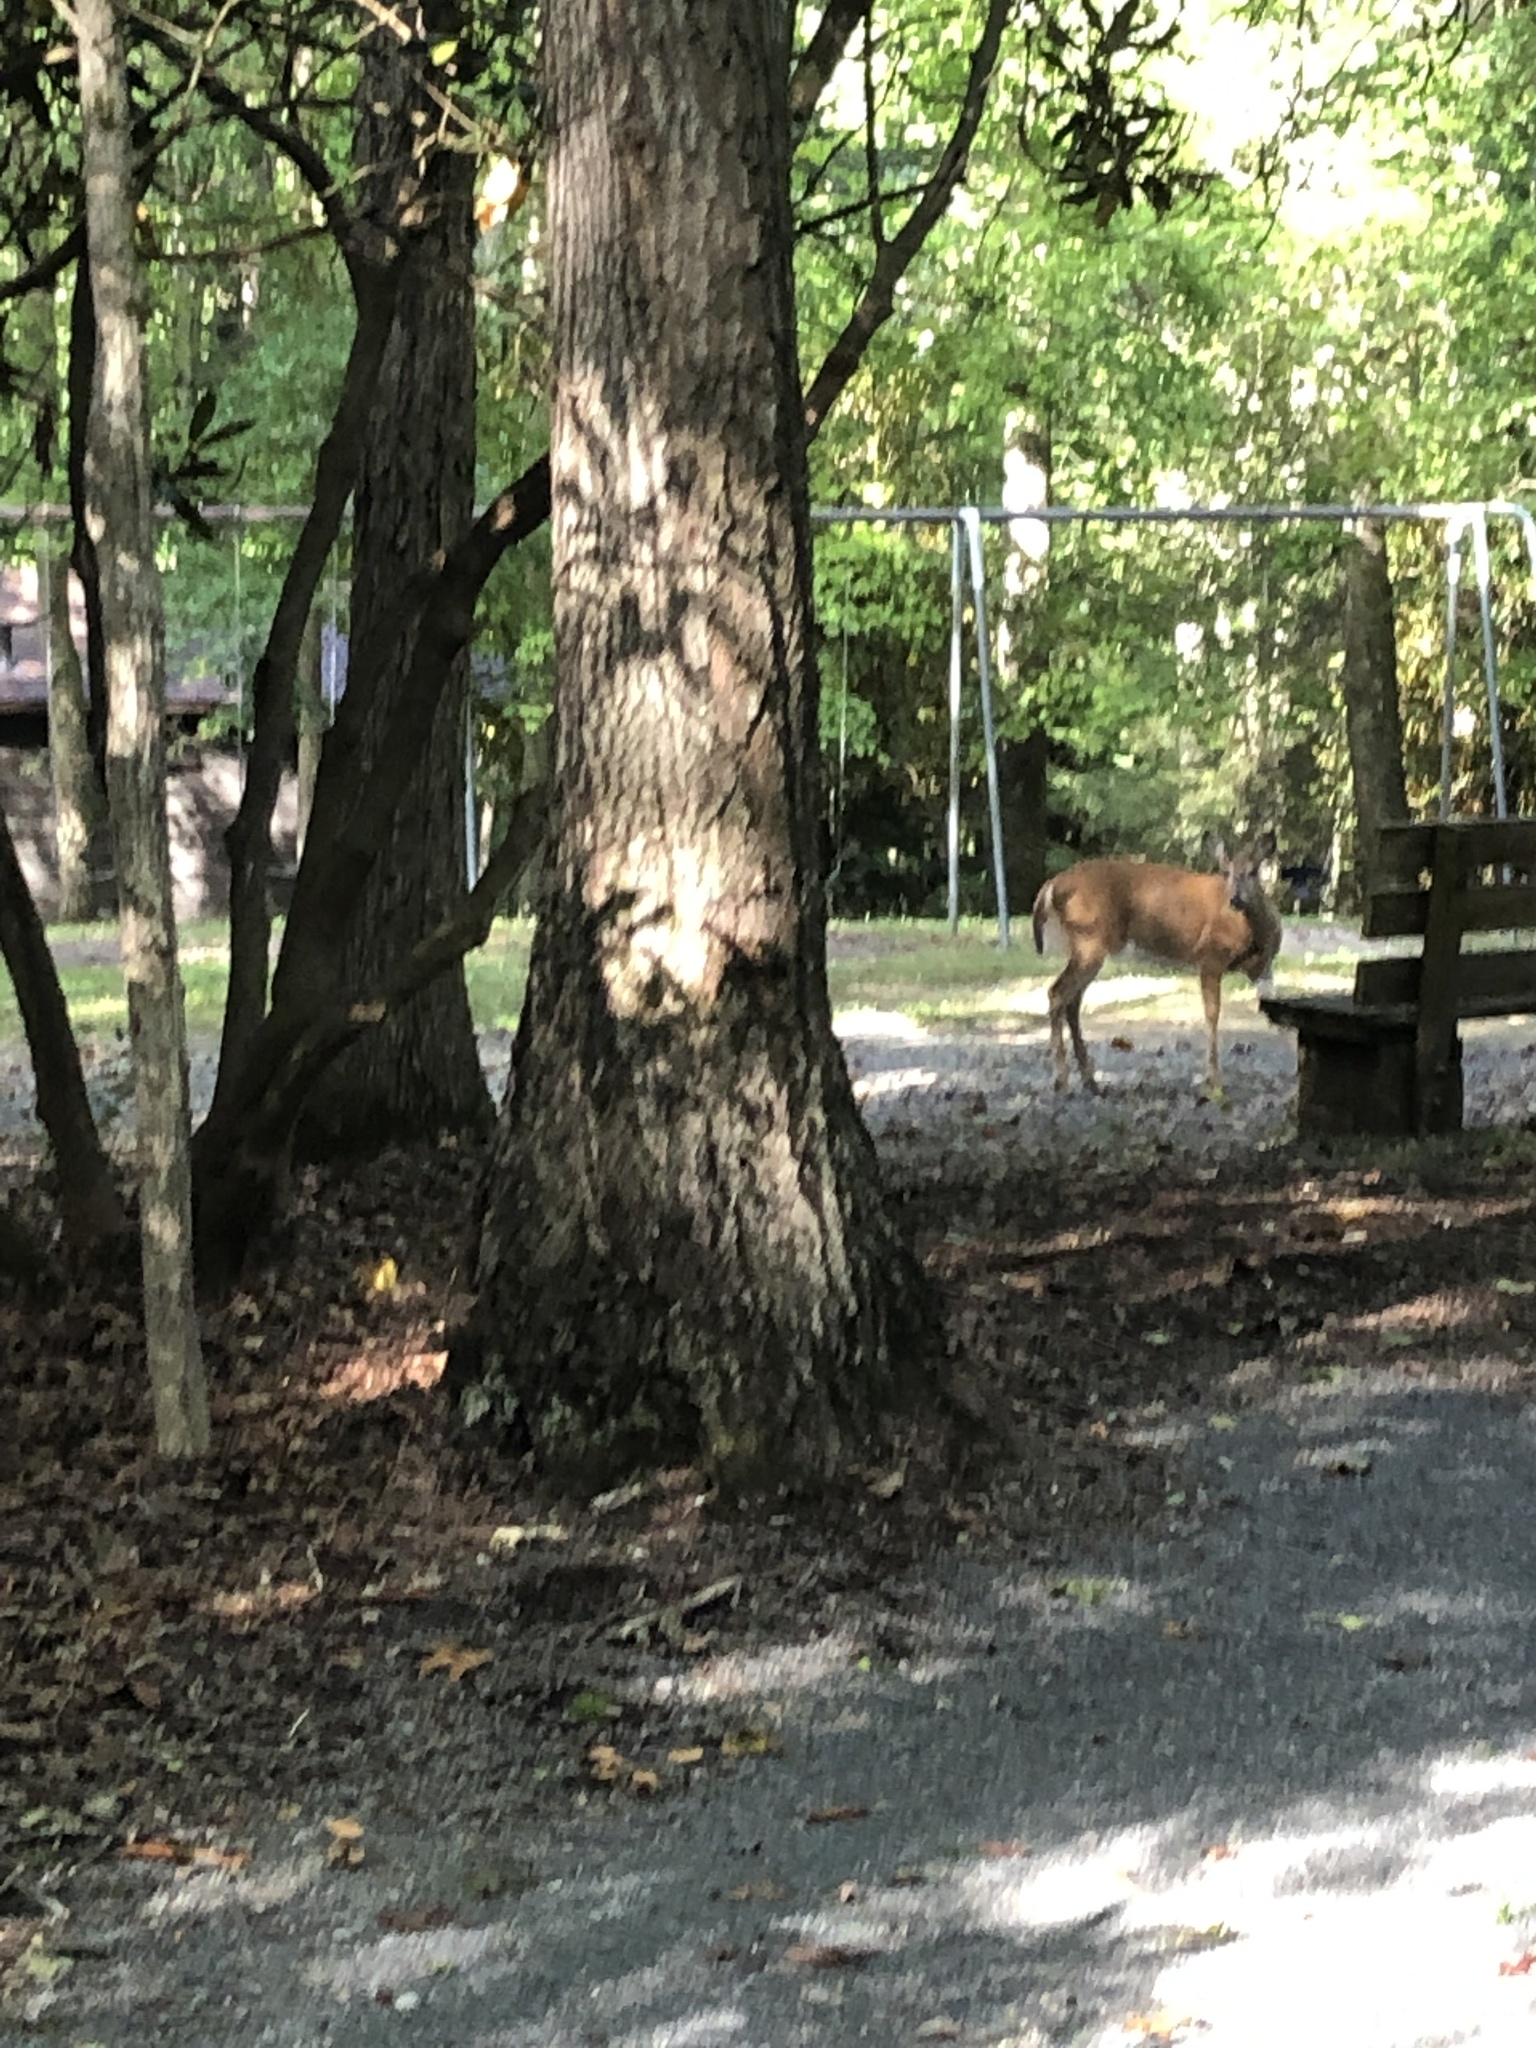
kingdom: Animalia
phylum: Chordata
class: Mammalia
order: Artiodactyla
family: Cervidae
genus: Odocoileus
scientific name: Odocoileus virginianus
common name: White-tailed deer
